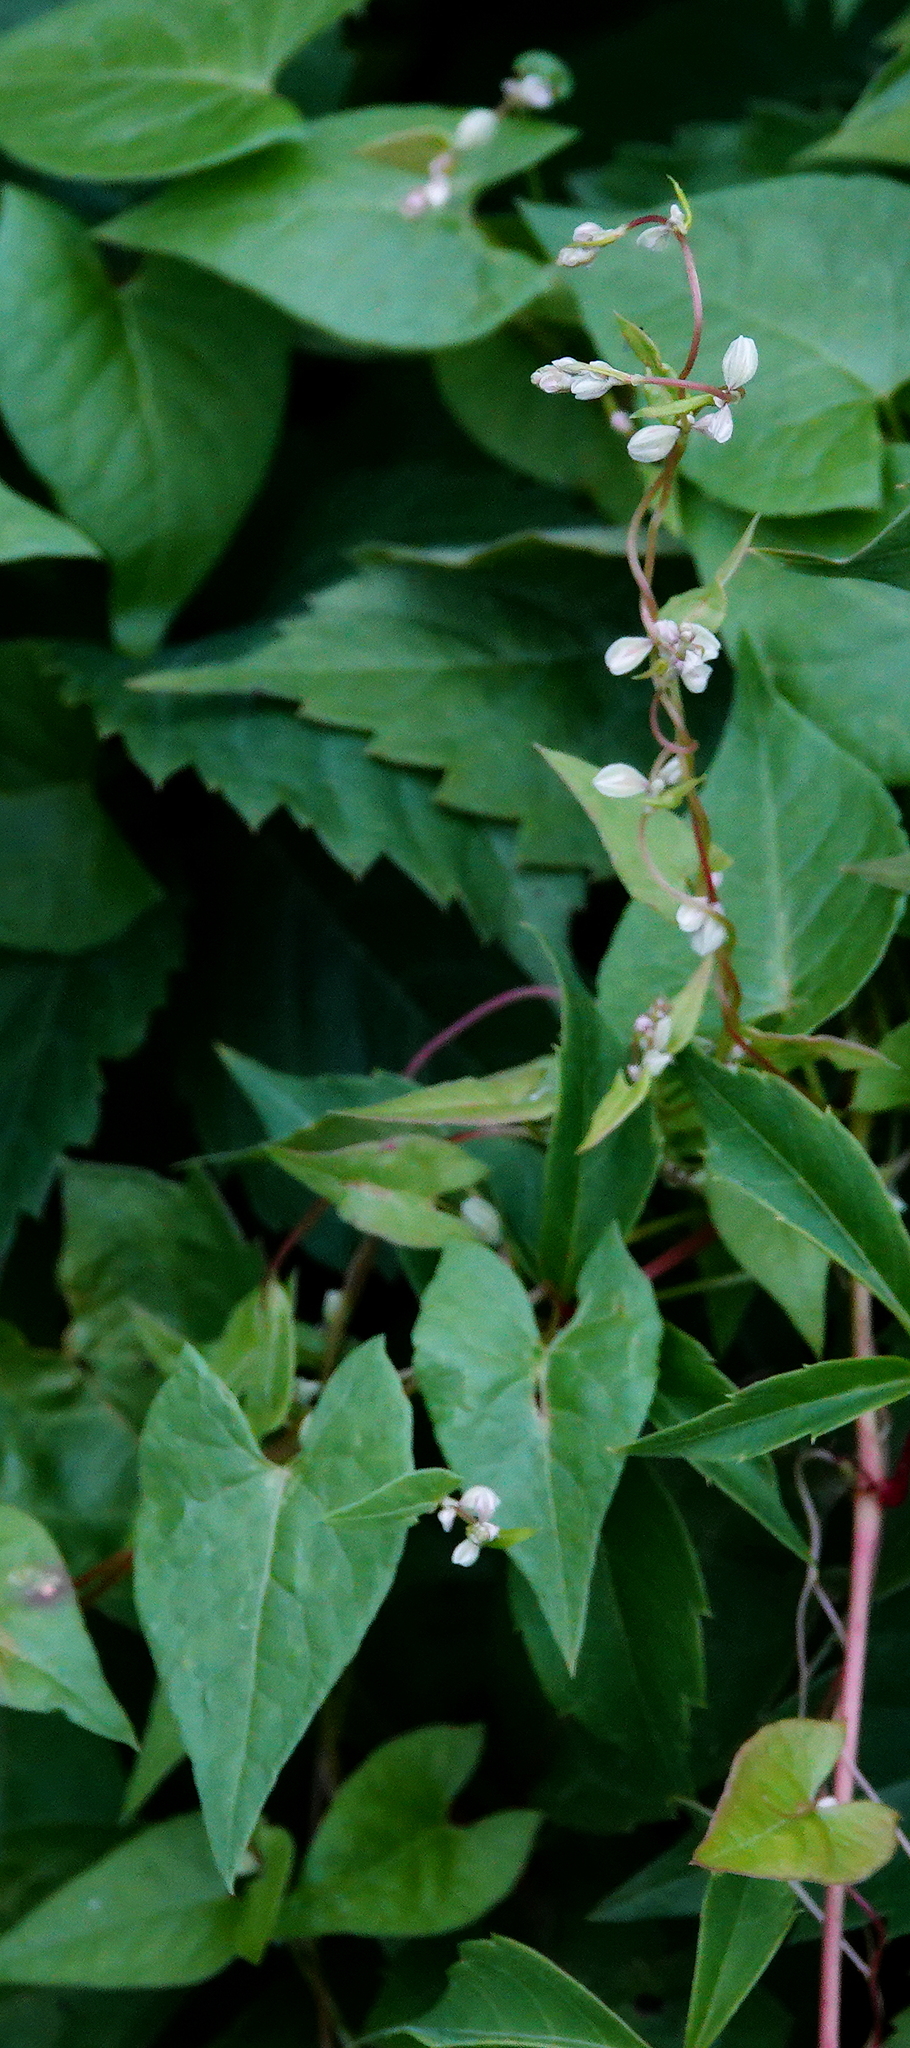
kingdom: Plantae
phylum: Tracheophyta
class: Magnoliopsida
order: Caryophyllales
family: Polygonaceae
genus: Fallopia
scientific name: Fallopia convolvulus
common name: Black bindweed
